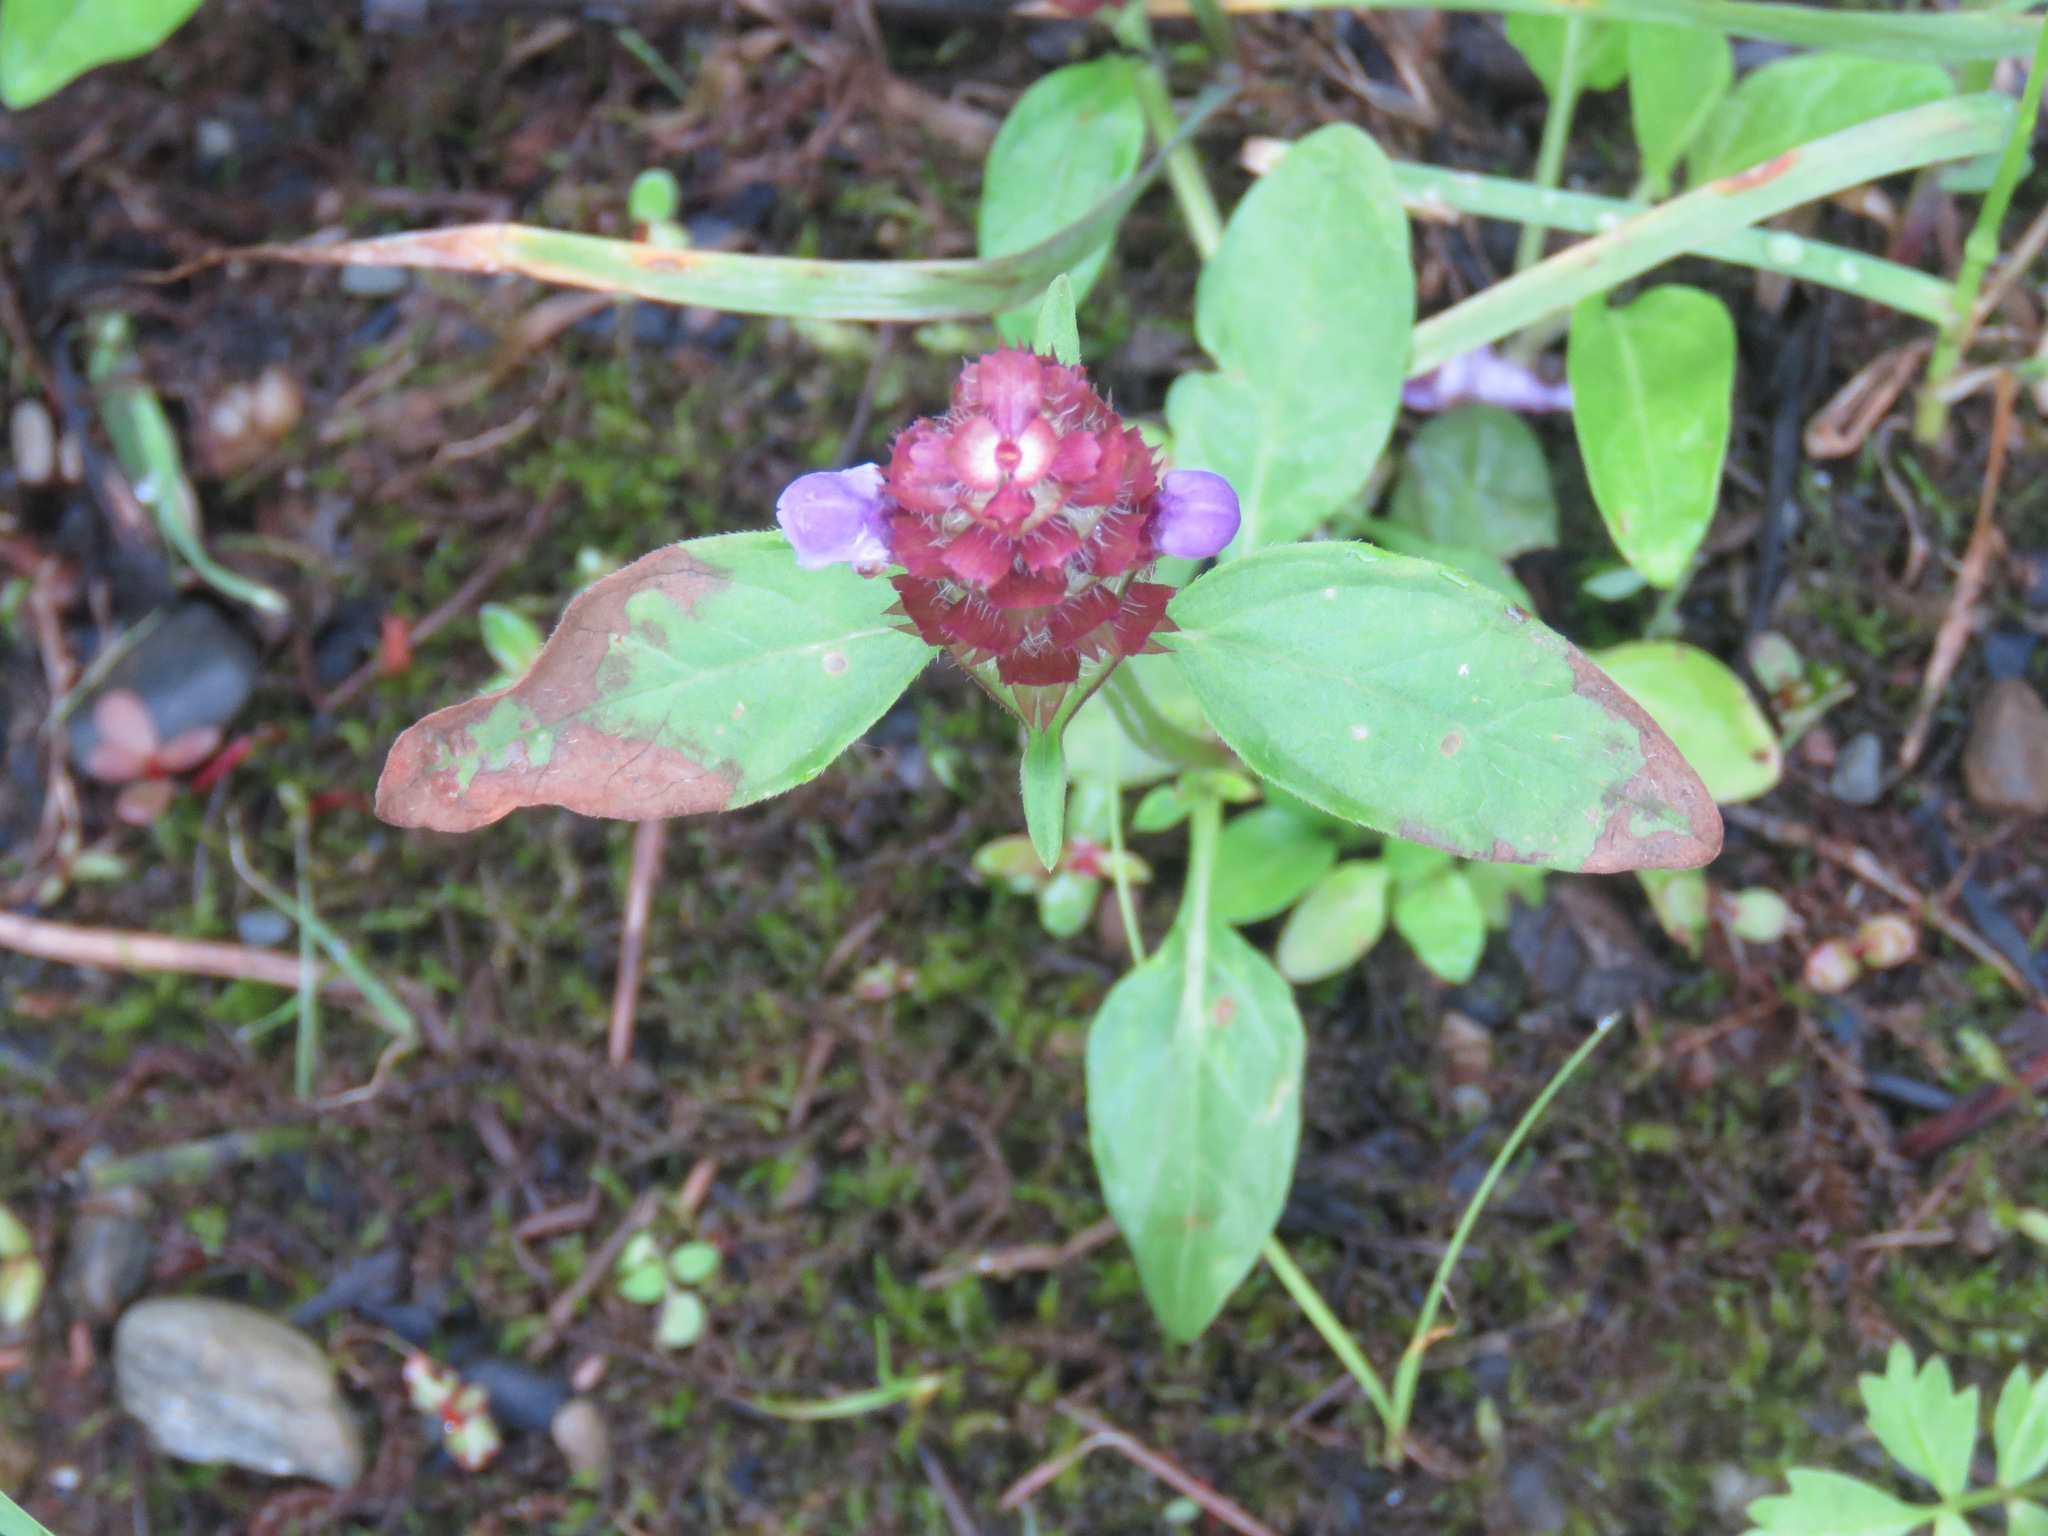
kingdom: Plantae
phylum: Tracheophyta
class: Magnoliopsida
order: Lamiales
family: Lamiaceae
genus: Prunella
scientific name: Prunella vulgaris
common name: Heal-all
